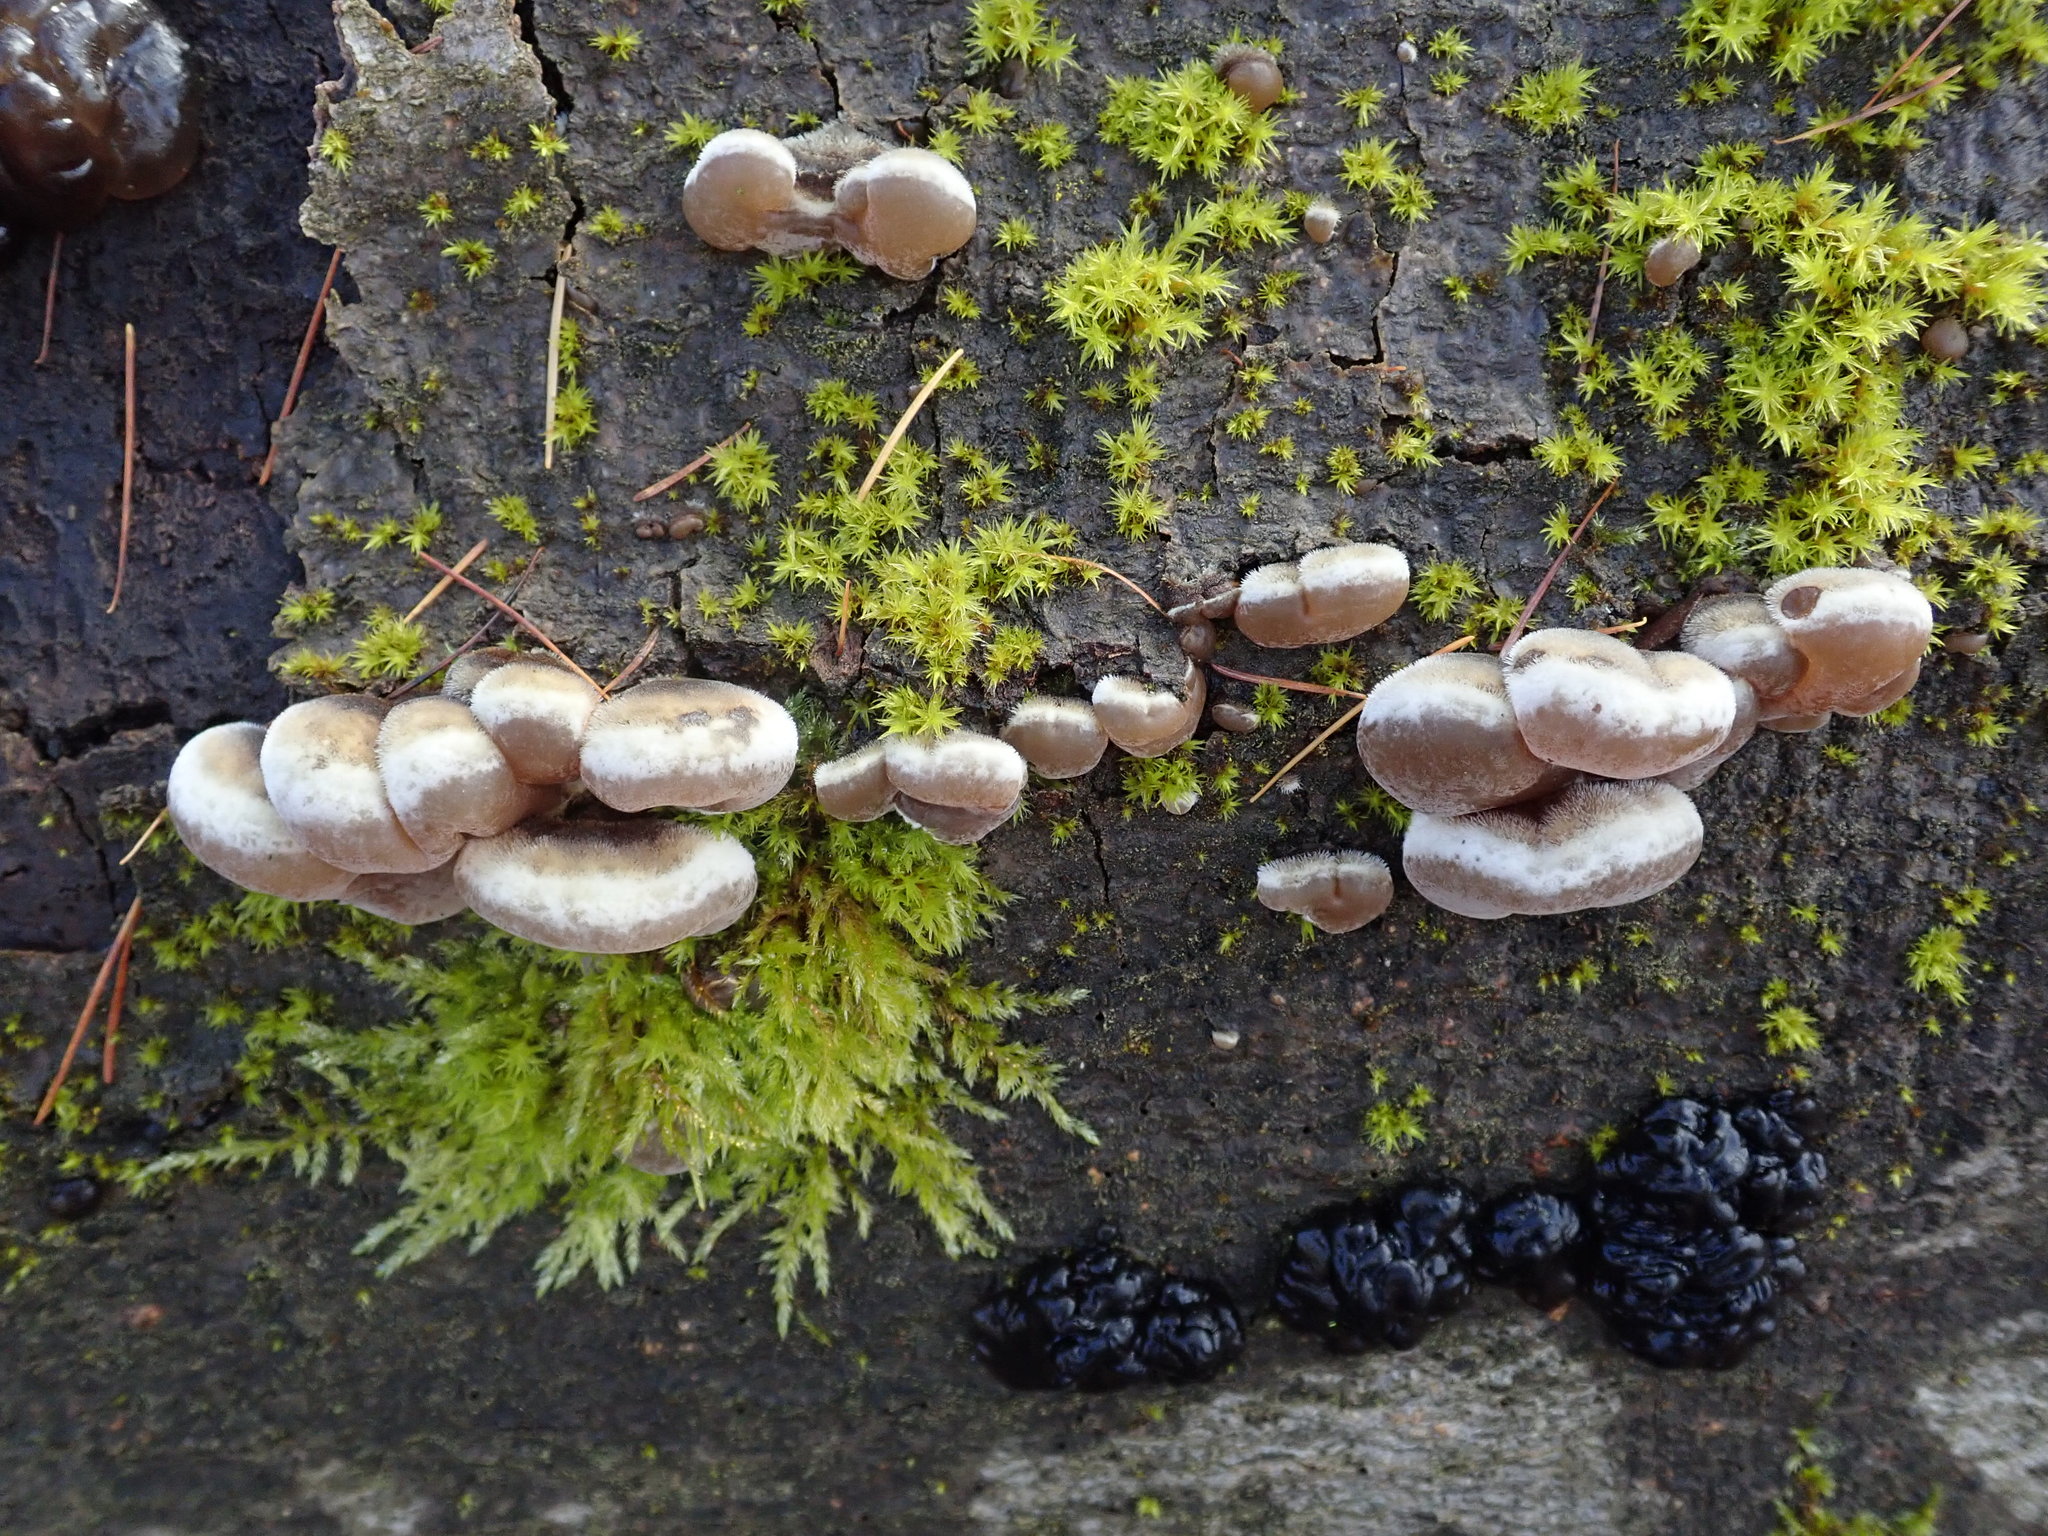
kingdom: Fungi
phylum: Basidiomycota
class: Agaricomycetes
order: Auriculariales
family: Auriculariaceae
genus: Auricularia
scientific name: Auricularia mesenterica
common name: Tripe fungus
